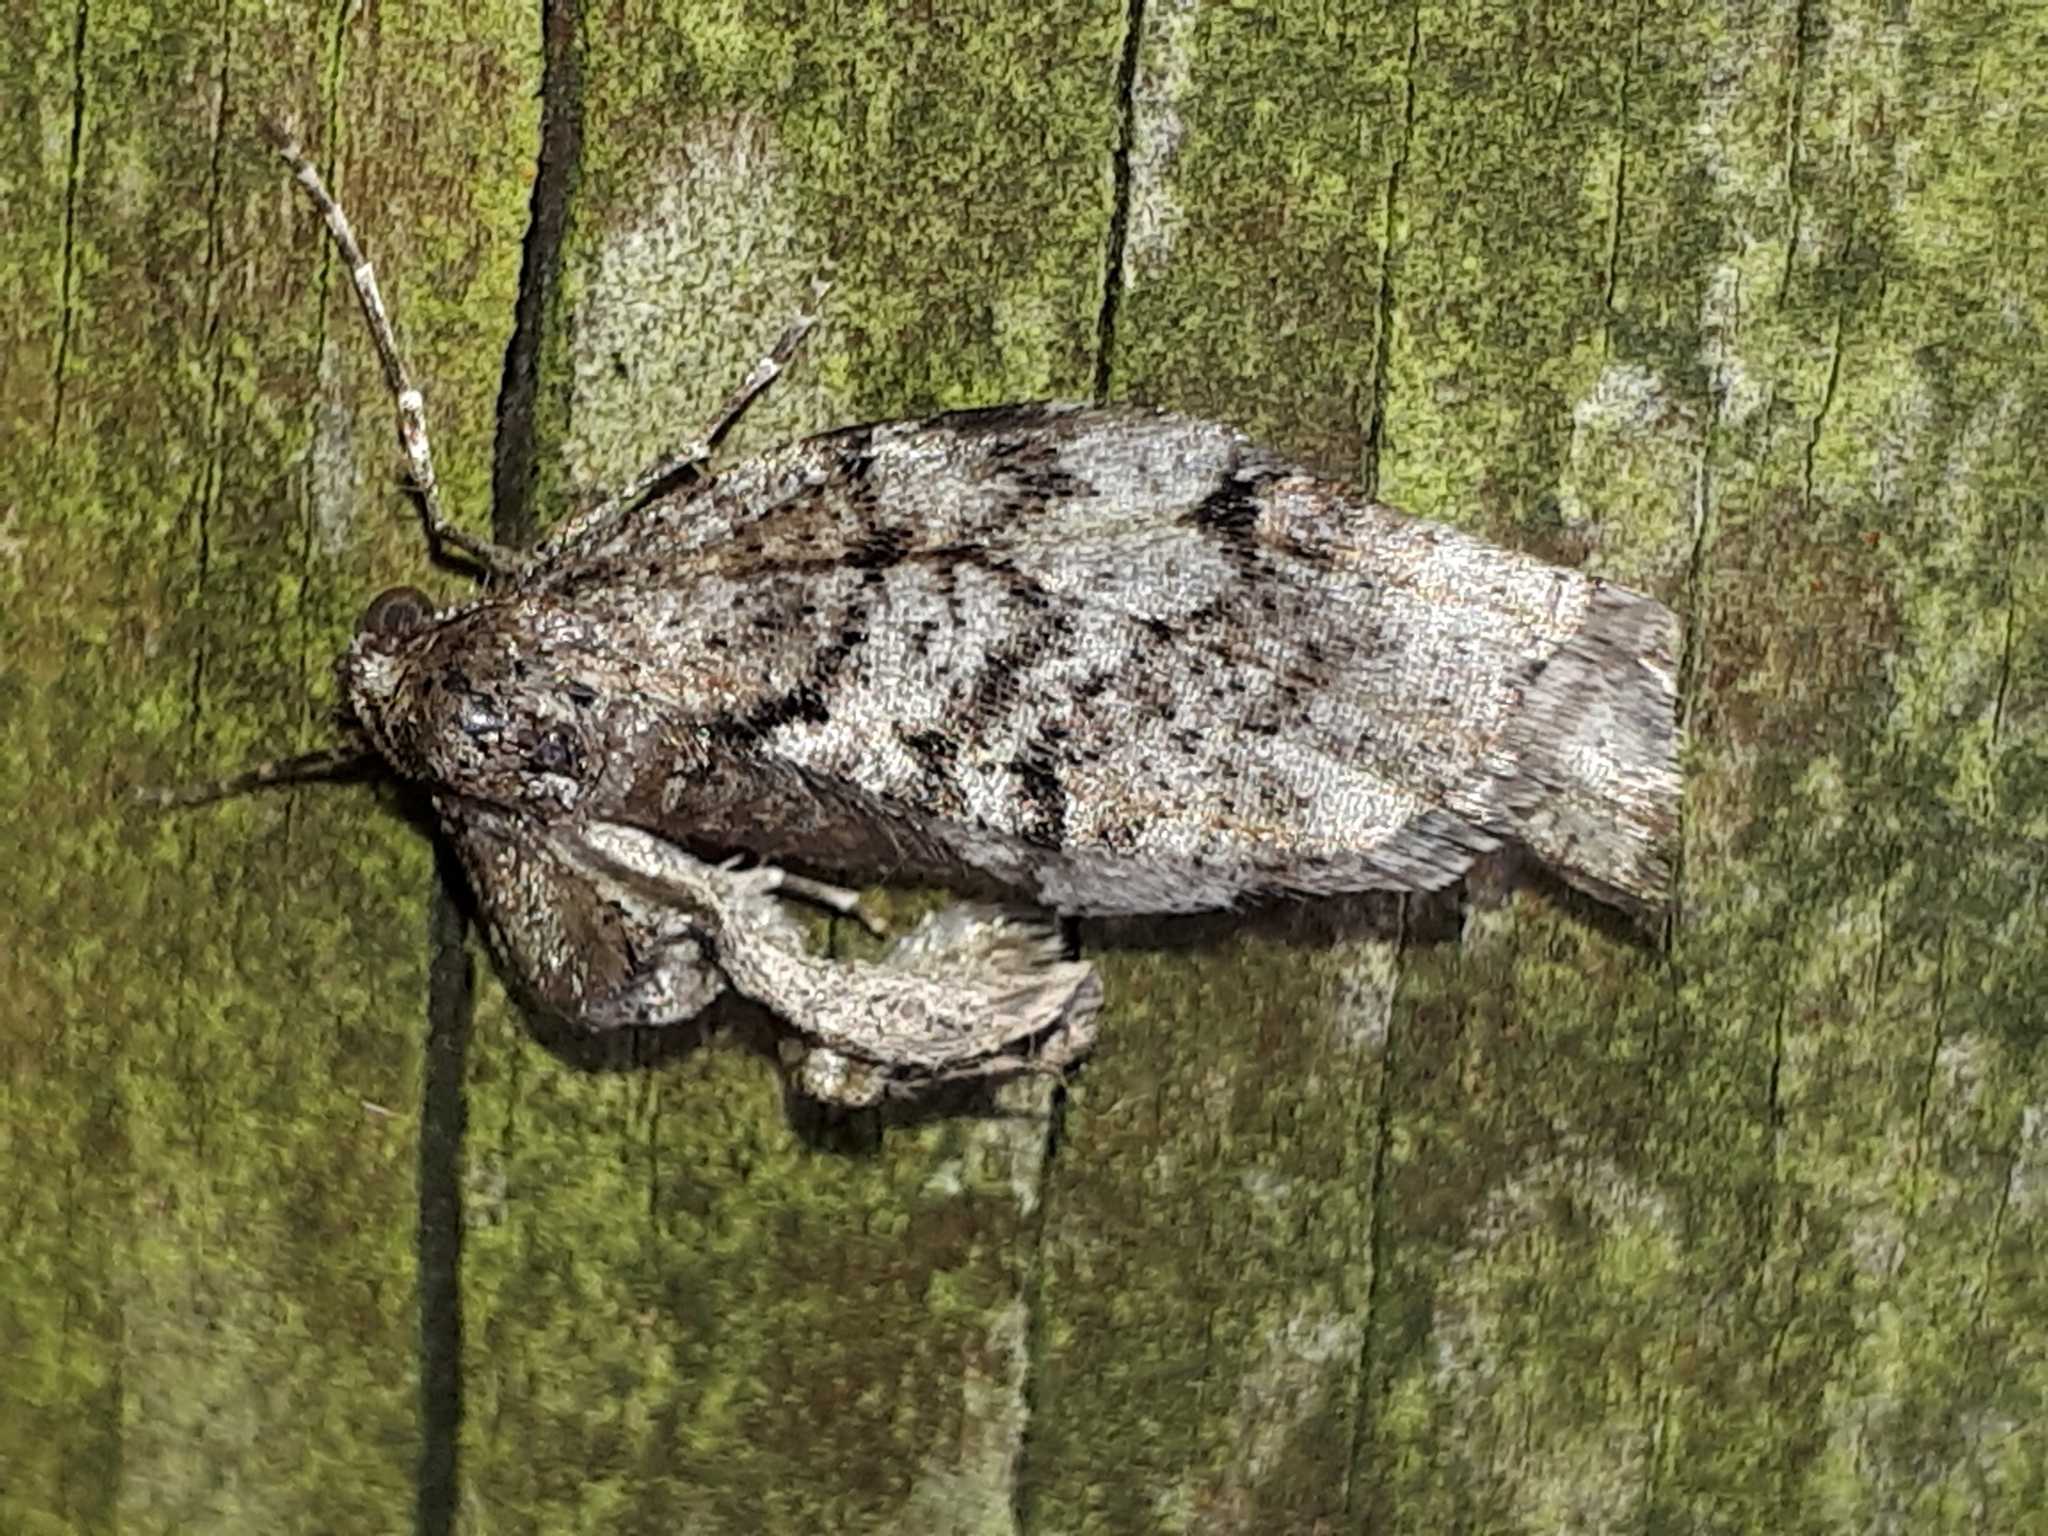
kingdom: Animalia
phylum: Arthropoda
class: Insecta
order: Lepidoptera
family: Geometridae
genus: Agriopis
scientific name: Agriopis leucophaearia
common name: Spring usher
